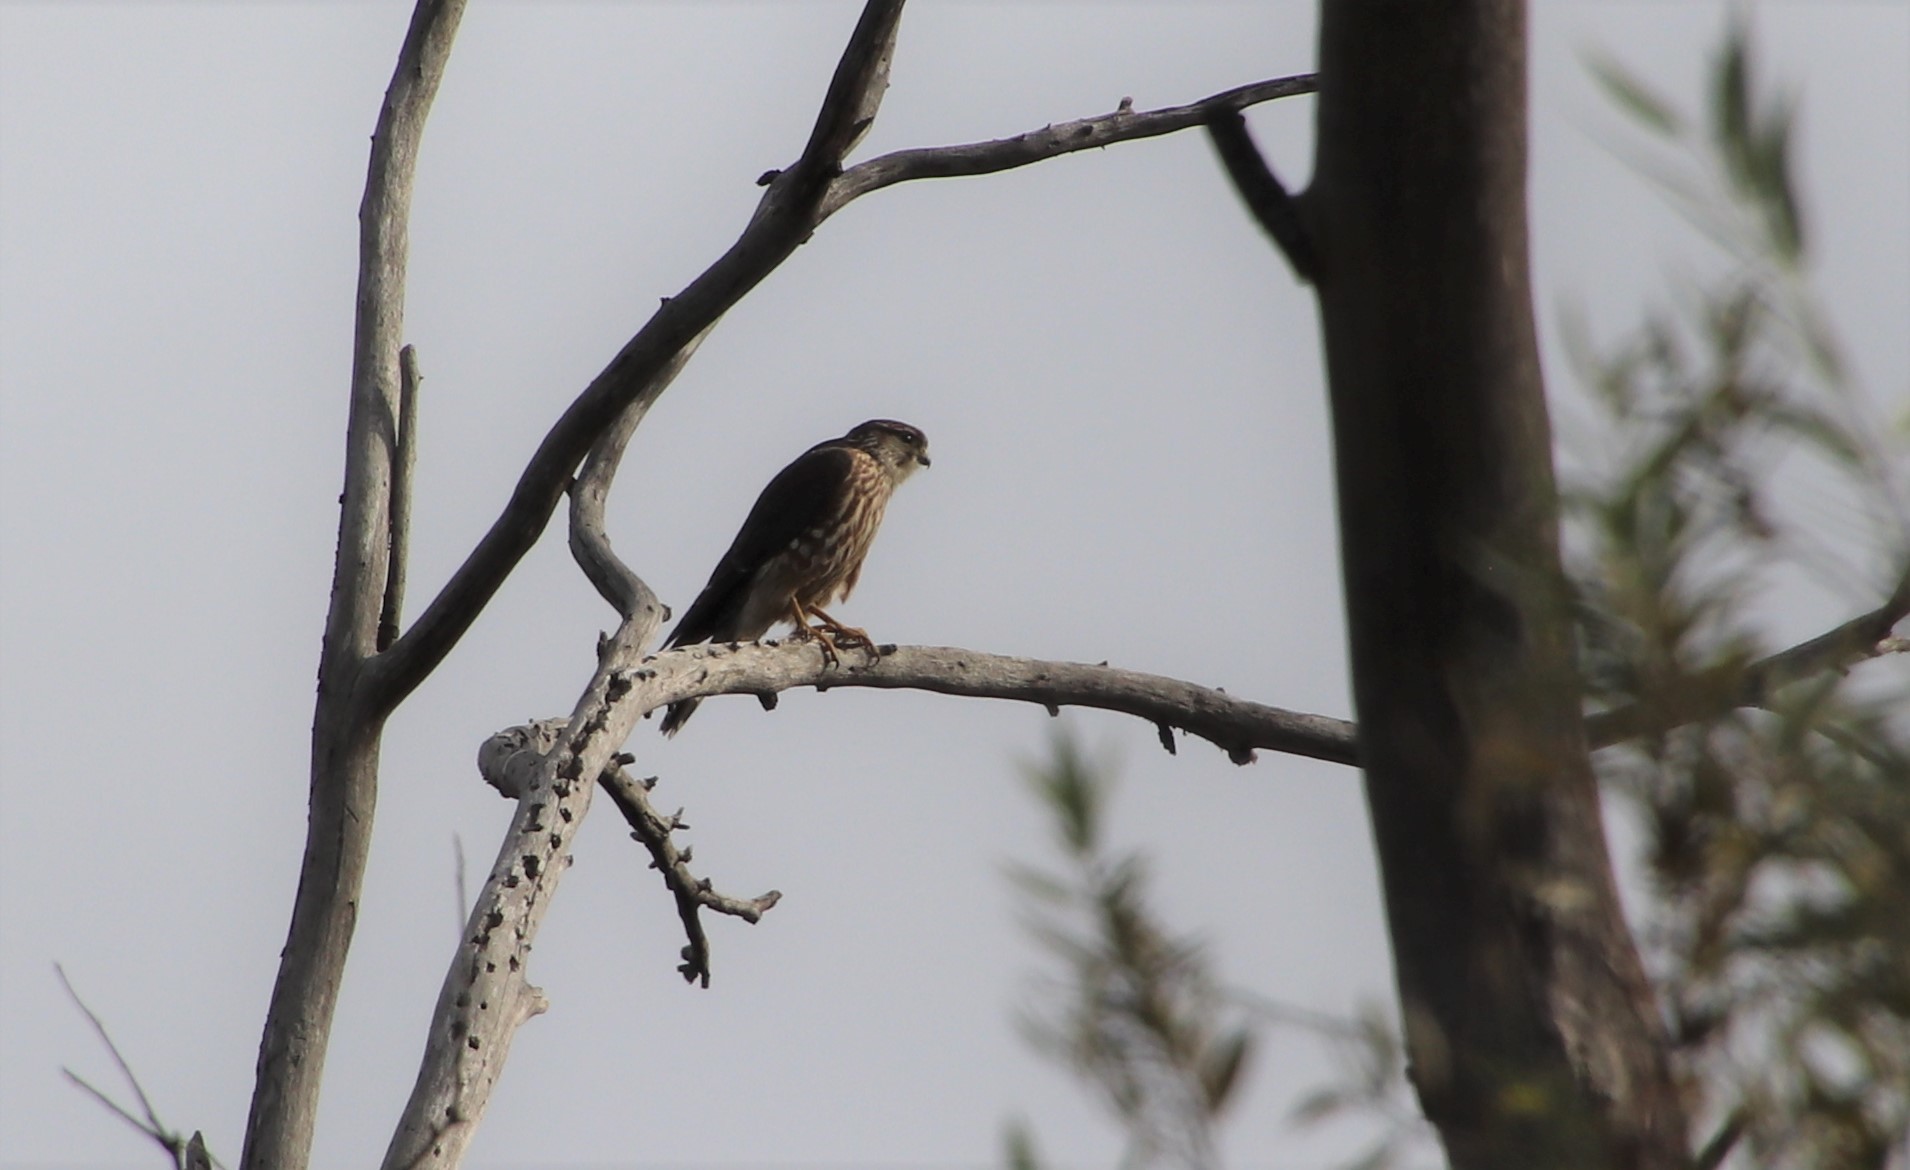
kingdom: Animalia
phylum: Chordata
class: Aves
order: Falconiformes
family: Falconidae
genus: Falco
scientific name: Falco columbarius
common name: Merlin
